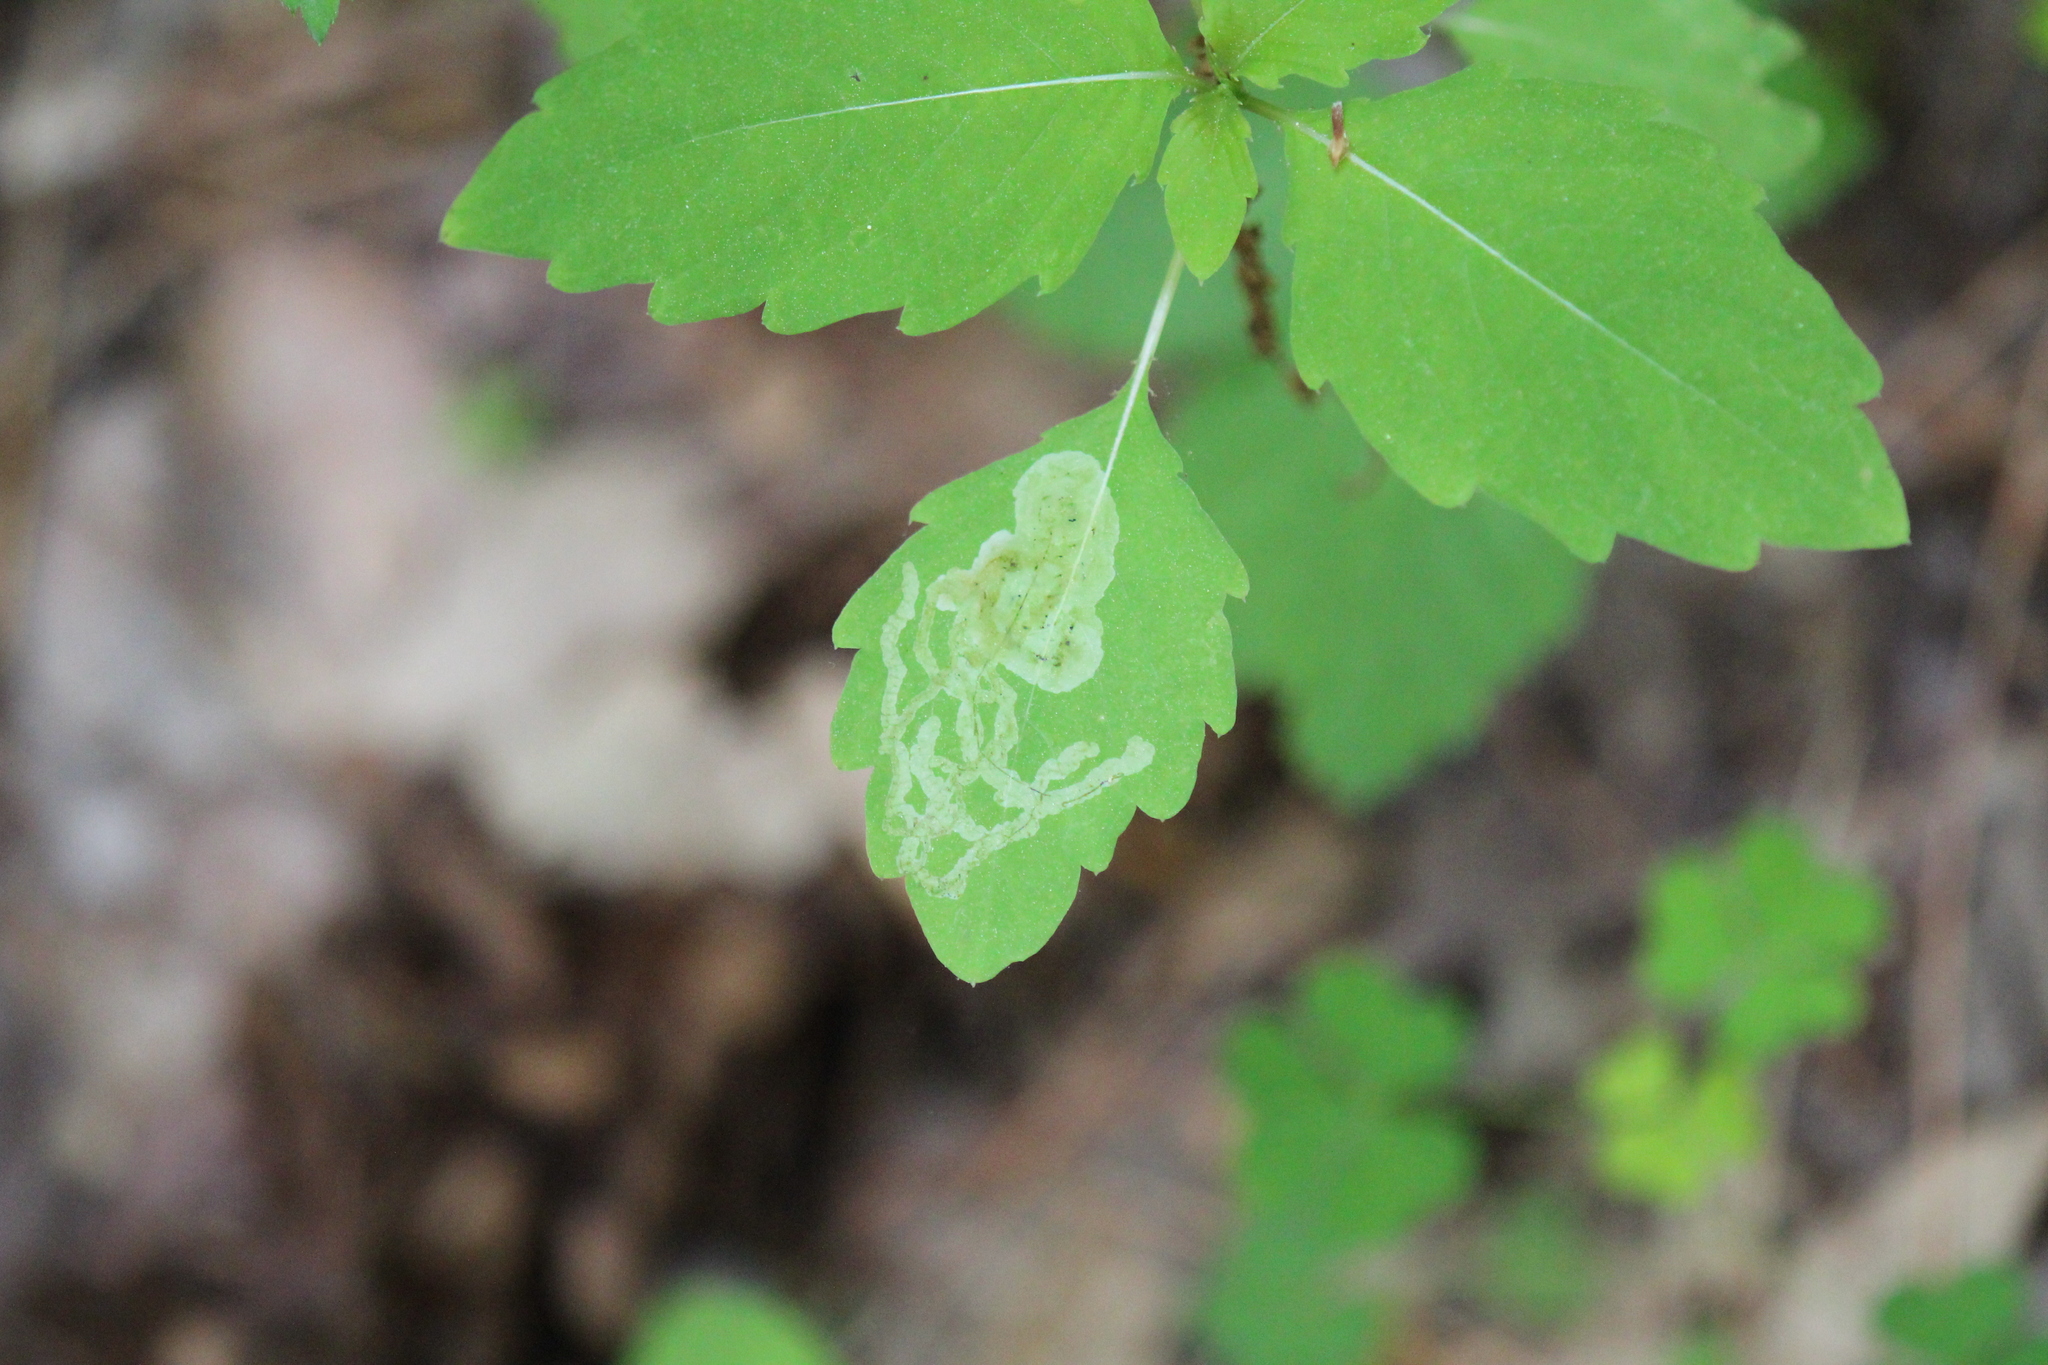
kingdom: Animalia
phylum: Arthropoda
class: Insecta
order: Diptera
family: Agromyzidae
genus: Phytoliriomyza
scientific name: Phytoliriomyza melampyga
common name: Jewelweed leaf-miner fly
